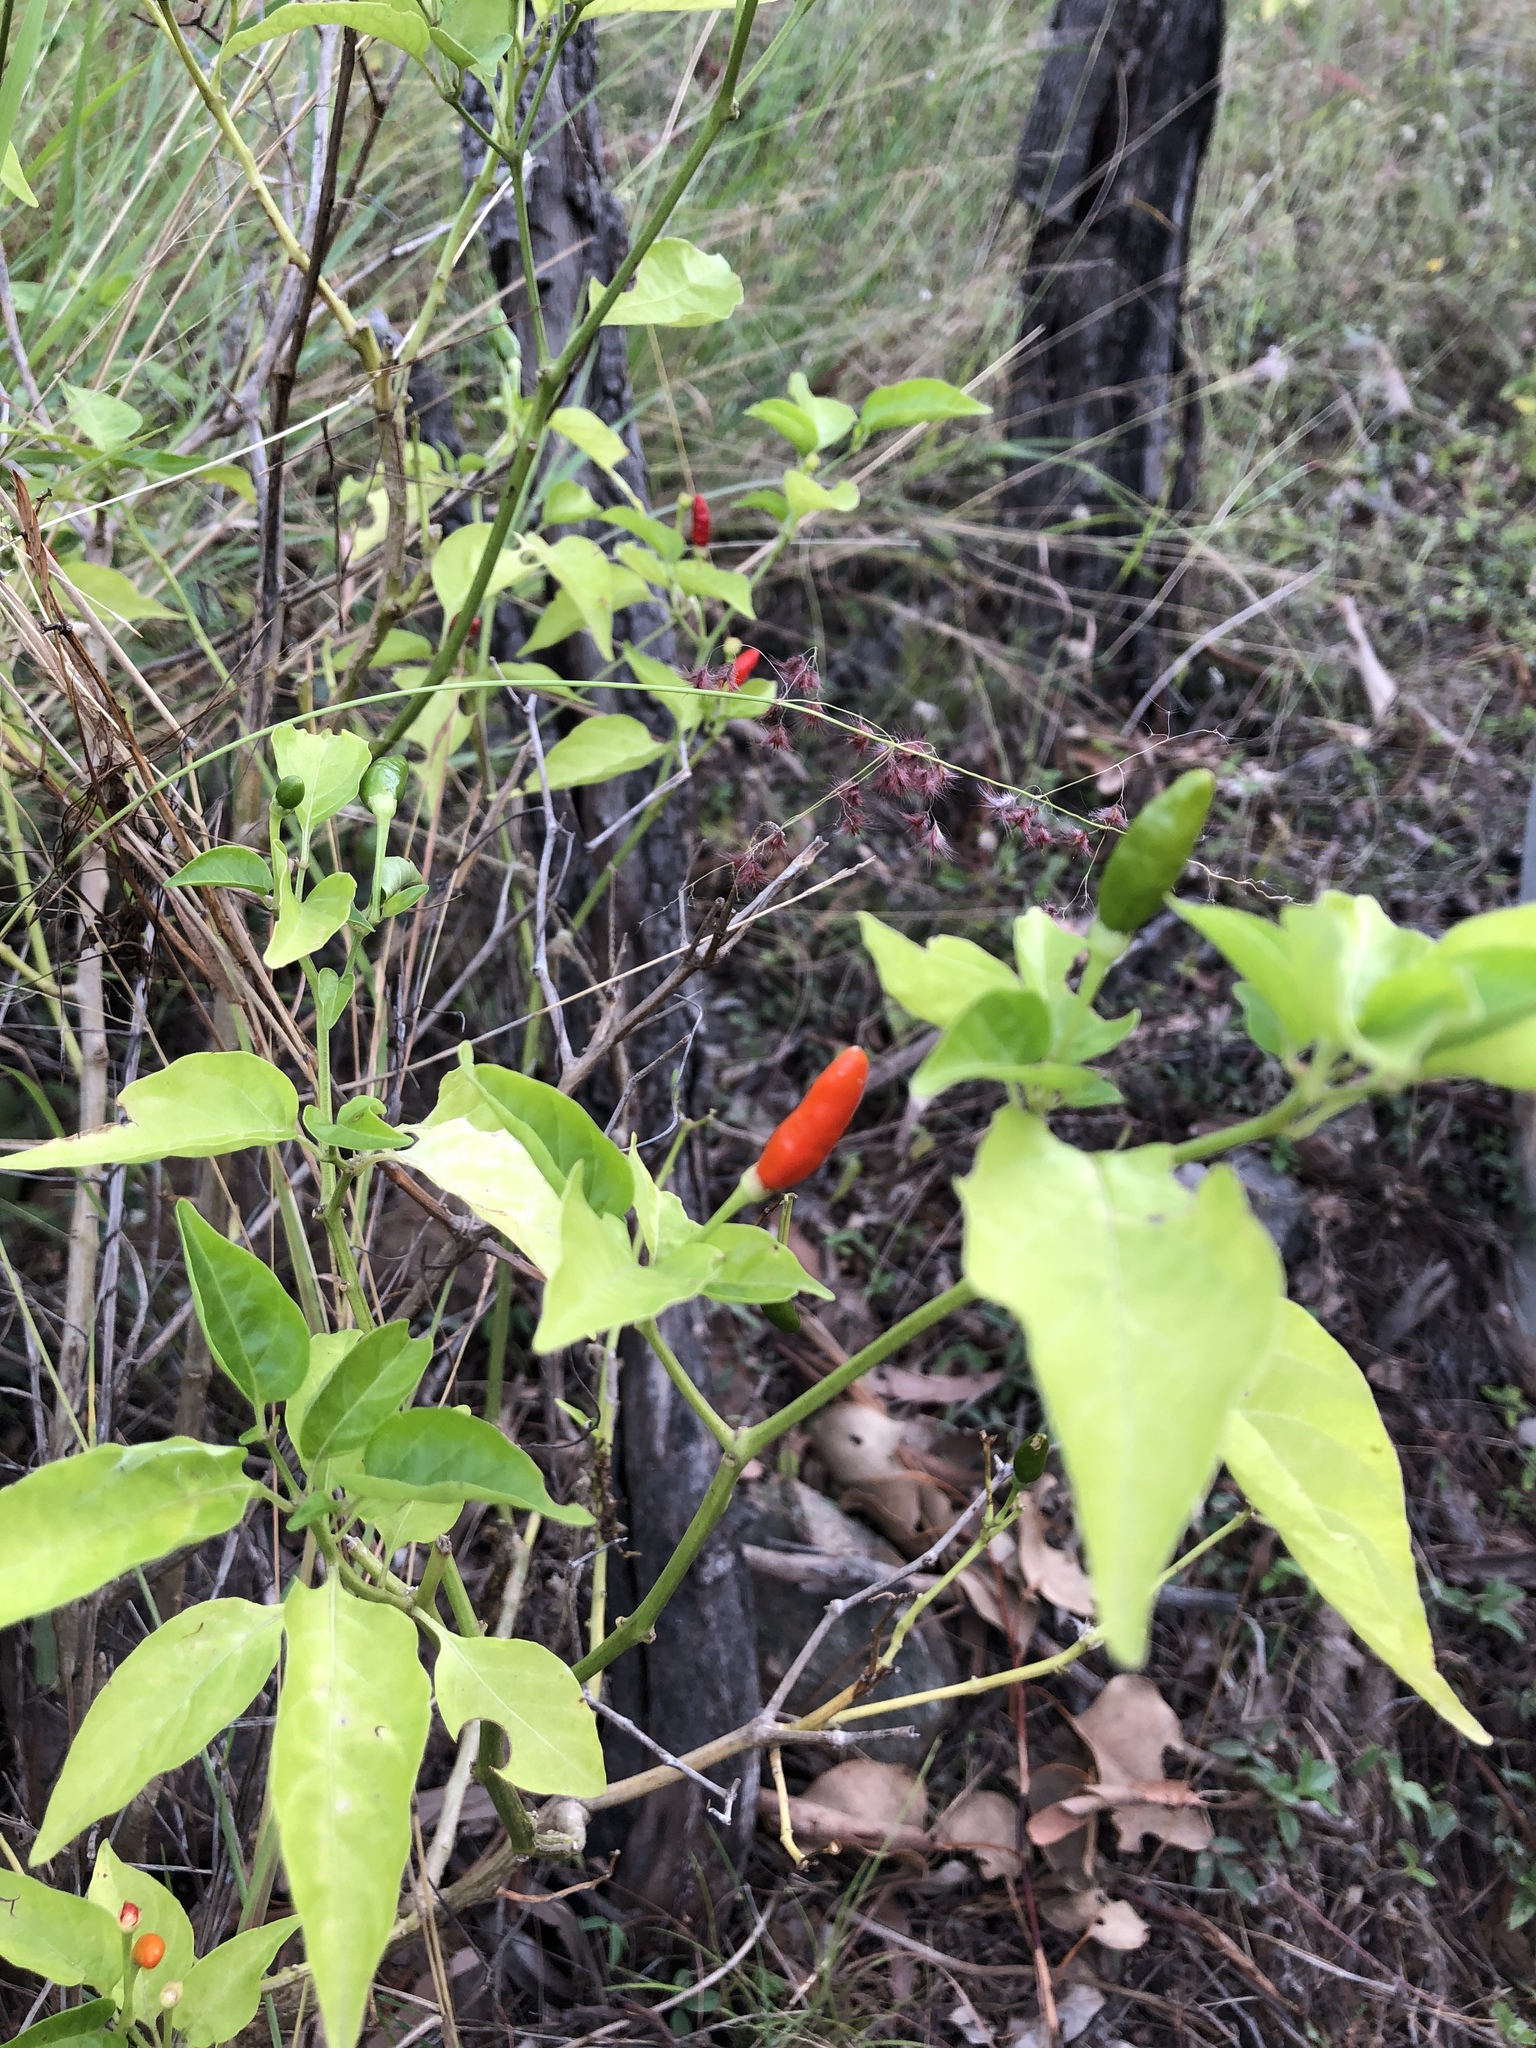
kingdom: Plantae
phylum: Tracheophyta
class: Magnoliopsida
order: Solanales
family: Solanaceae
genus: Capsicum
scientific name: Capsicum annuum
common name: Sweet pepper
